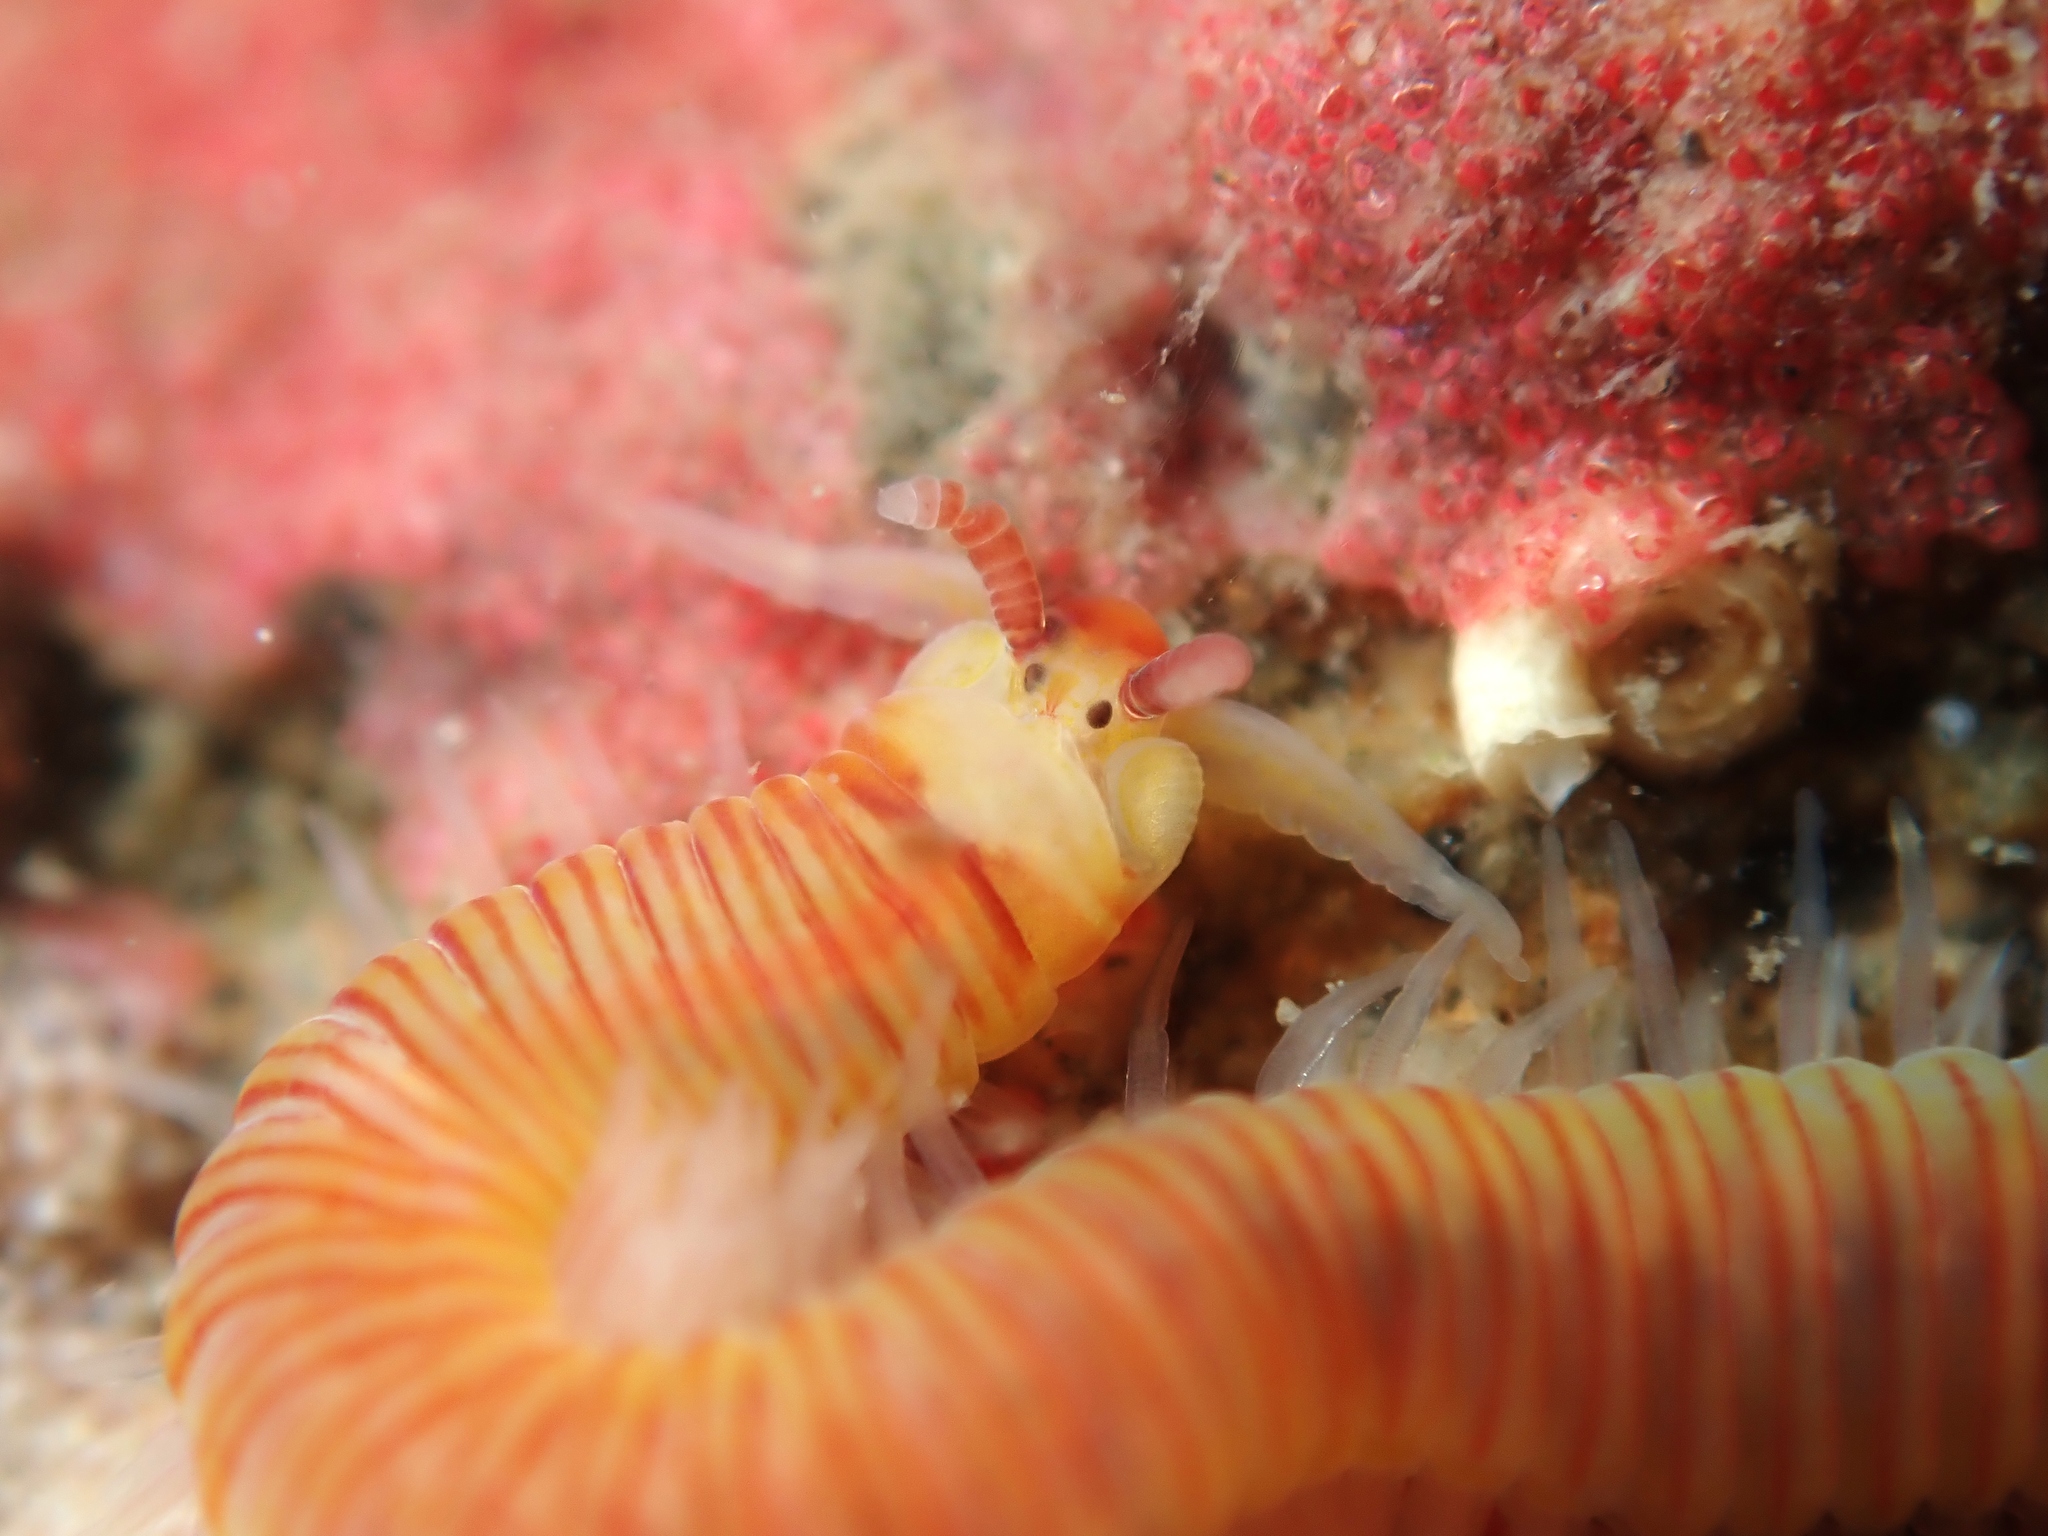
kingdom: Animalia
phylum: Annelida
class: Polychaeta
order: Eunicida
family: Dorvilleidae
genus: Dorvillea
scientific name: Dorvillea australiensis
